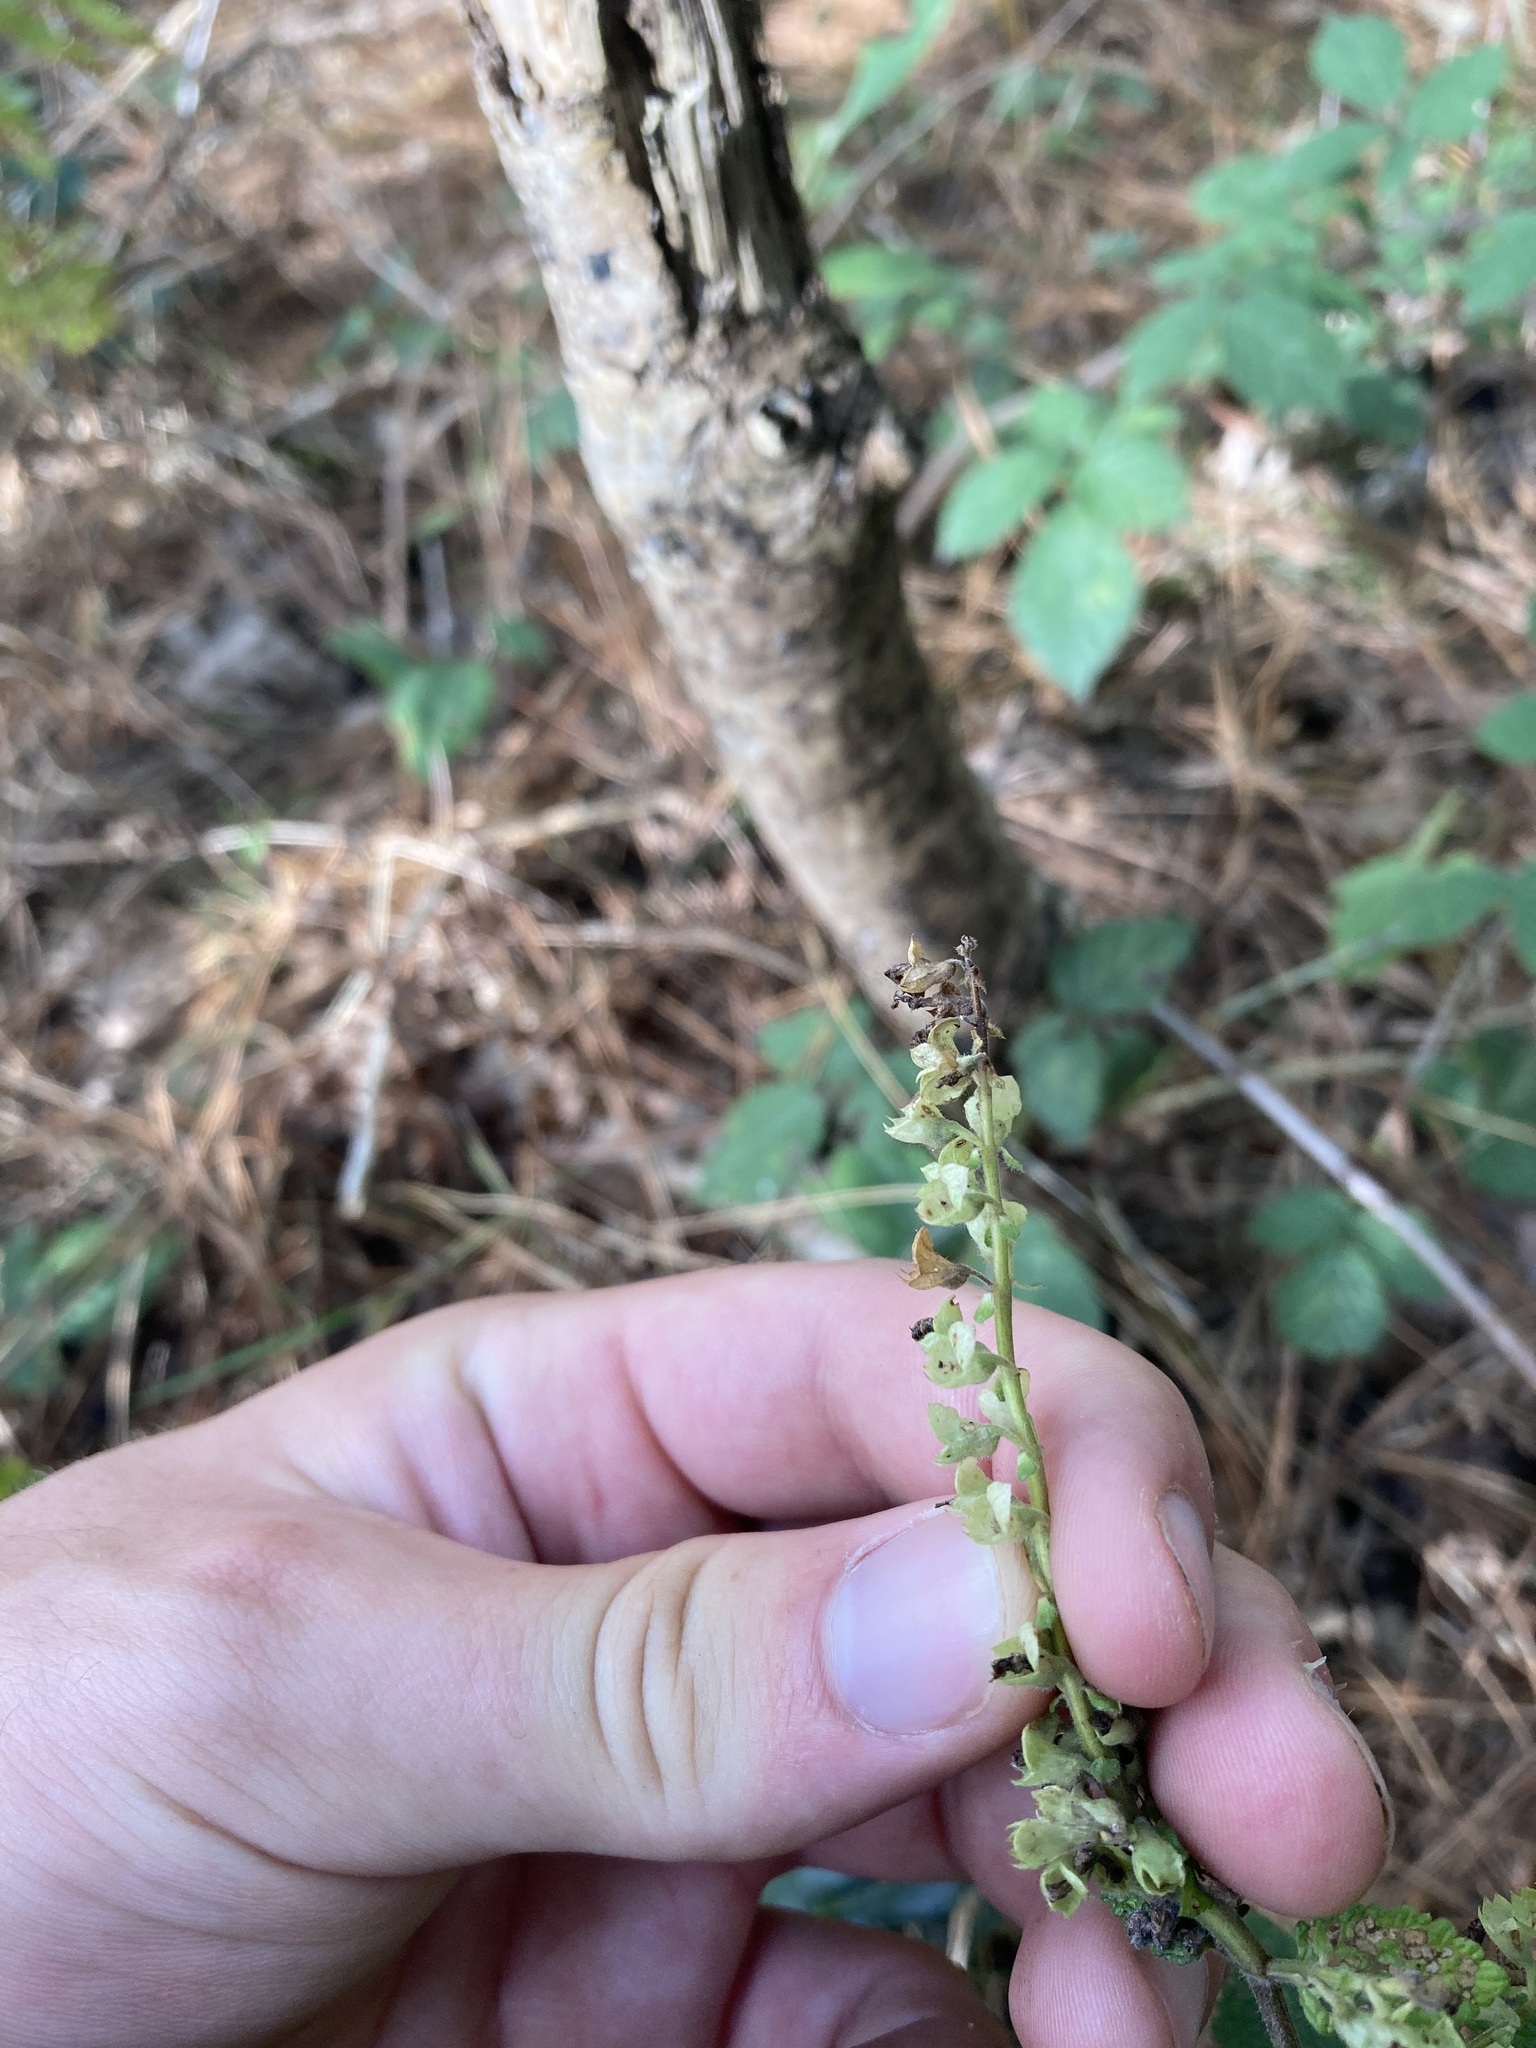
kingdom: Plantae
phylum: Tracheophyta
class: Magnoliopsida
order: Lamiales
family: Lamiaceae
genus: Teucrium
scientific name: Teucrium scorodonia
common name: Woodland germander
